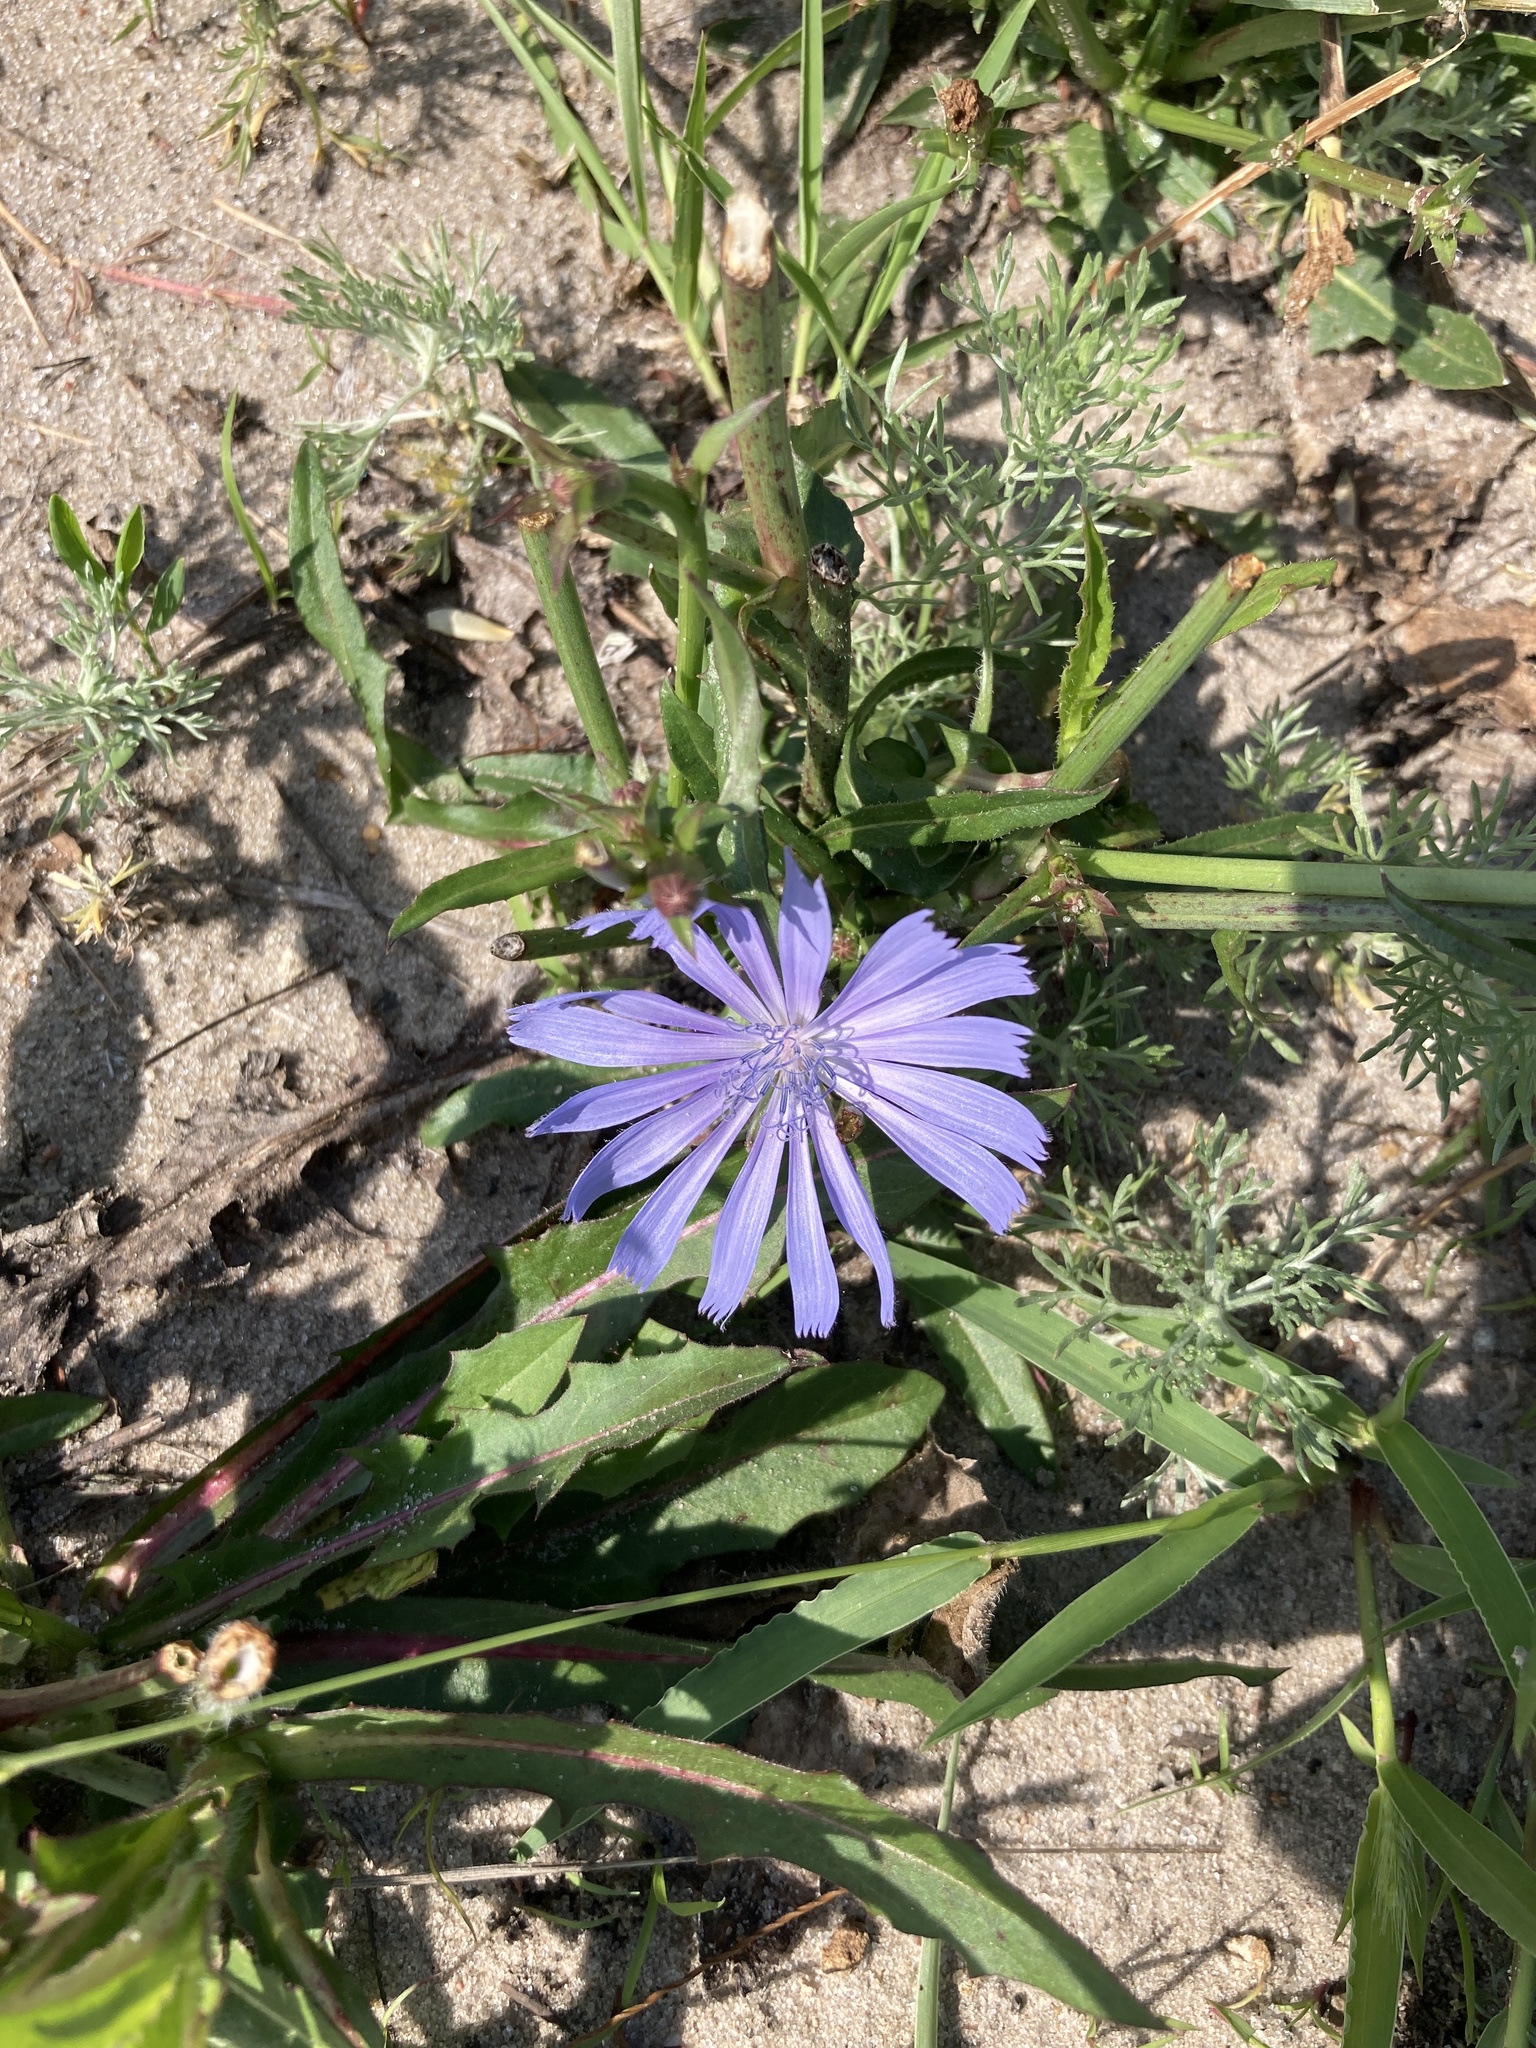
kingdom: Plantae
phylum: Tracheophyta
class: Magnoliopsida
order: Asterales
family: Asteraceae
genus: Cichorium
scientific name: Cichorium intybus
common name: Chicory
